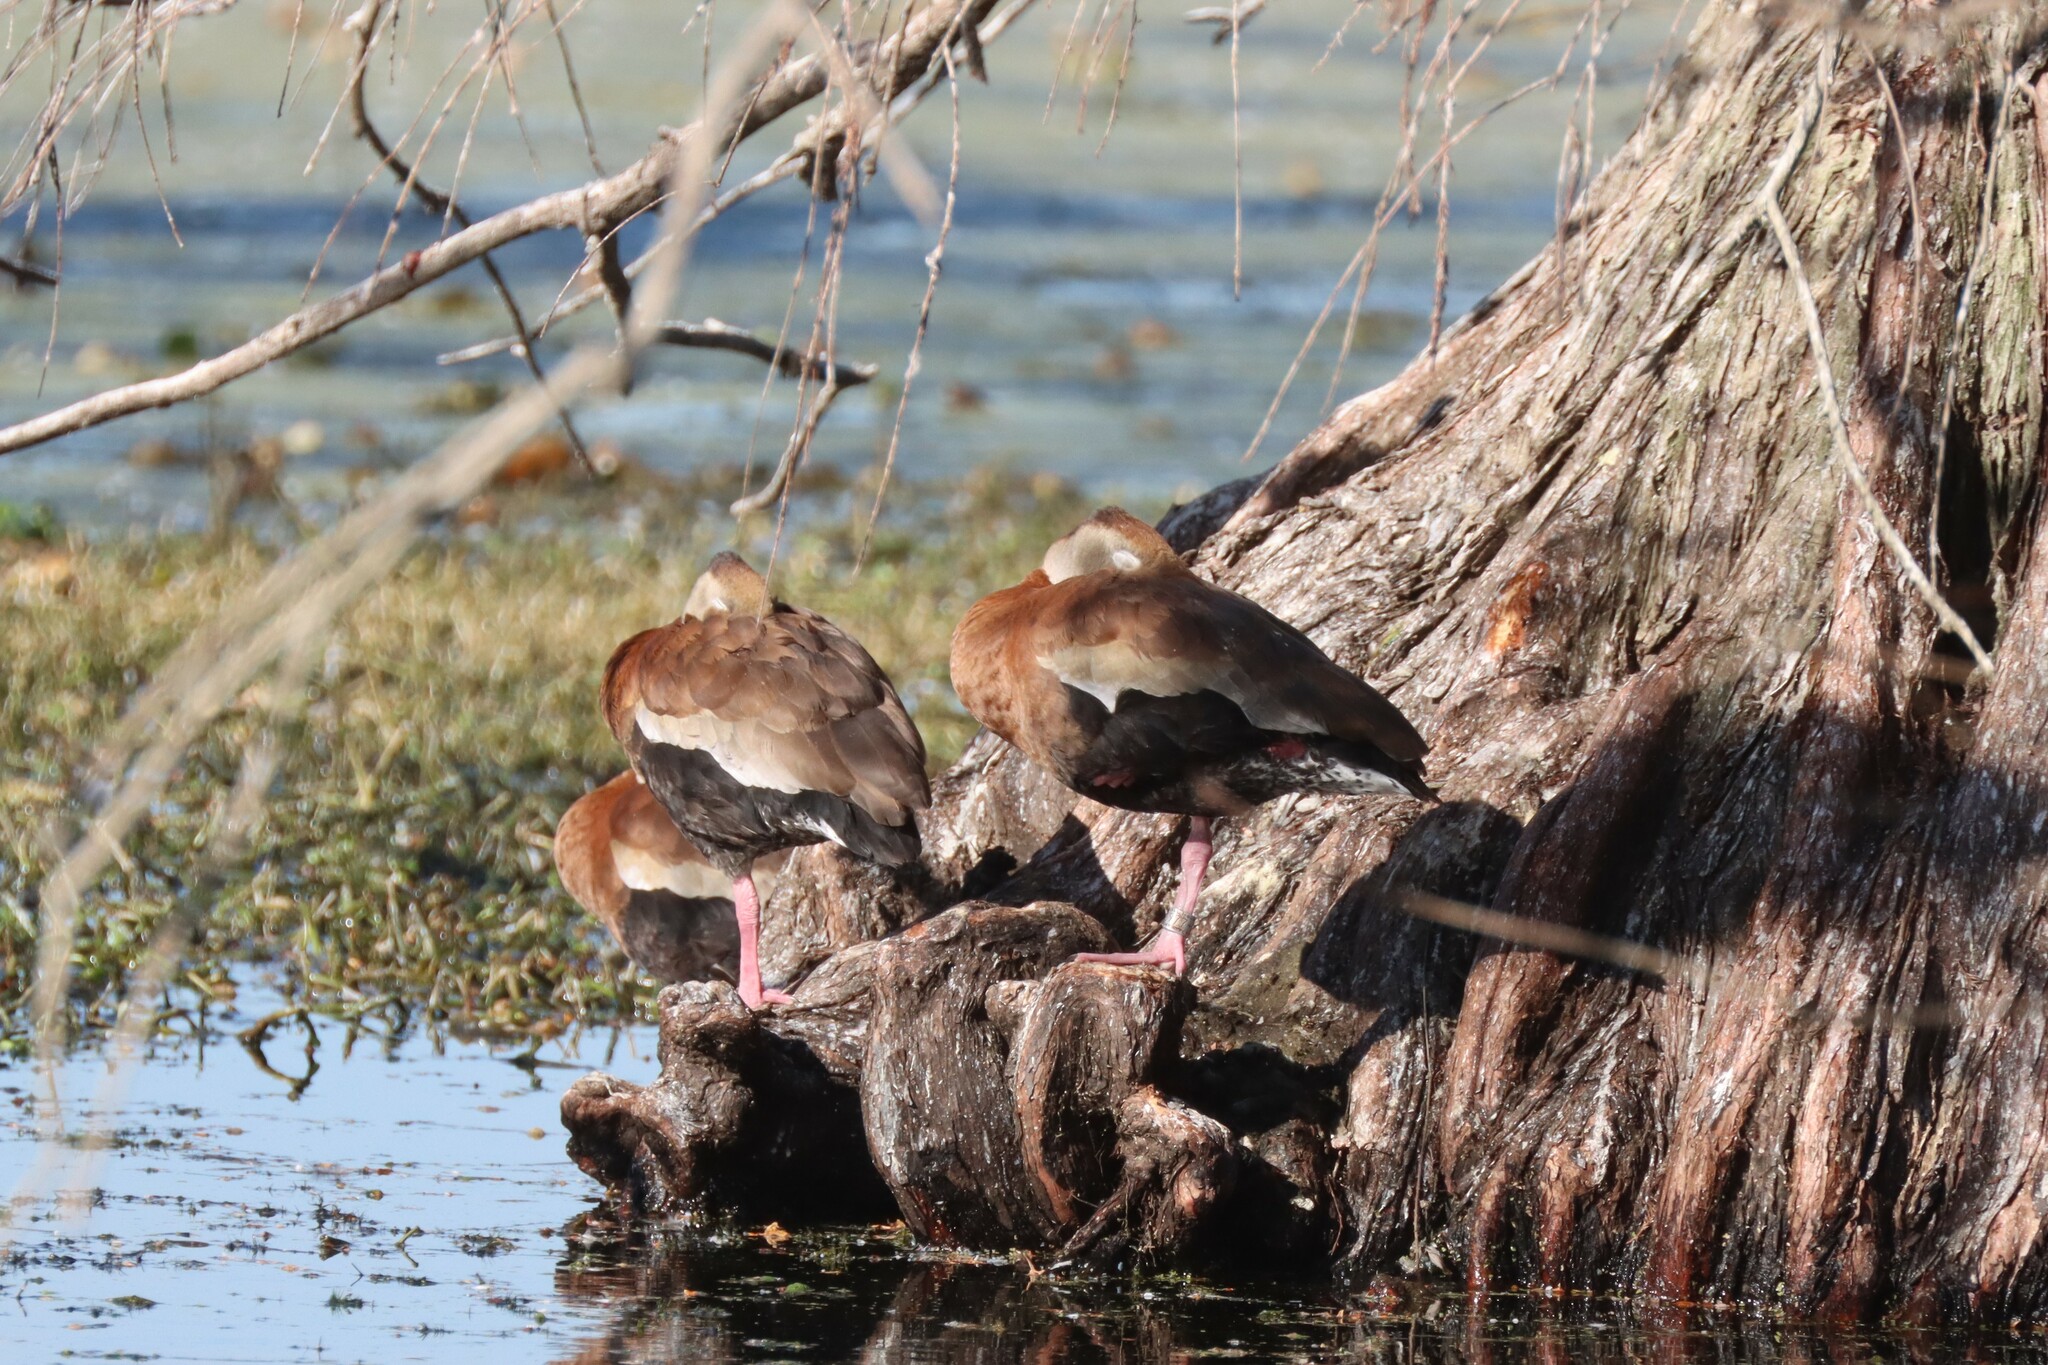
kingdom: Animalia
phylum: Chordata
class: Aves
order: Anseriformes
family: Anatidae
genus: Dendrocygna
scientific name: Dendrocygna autumnalis
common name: Black-bellied whistling duck
